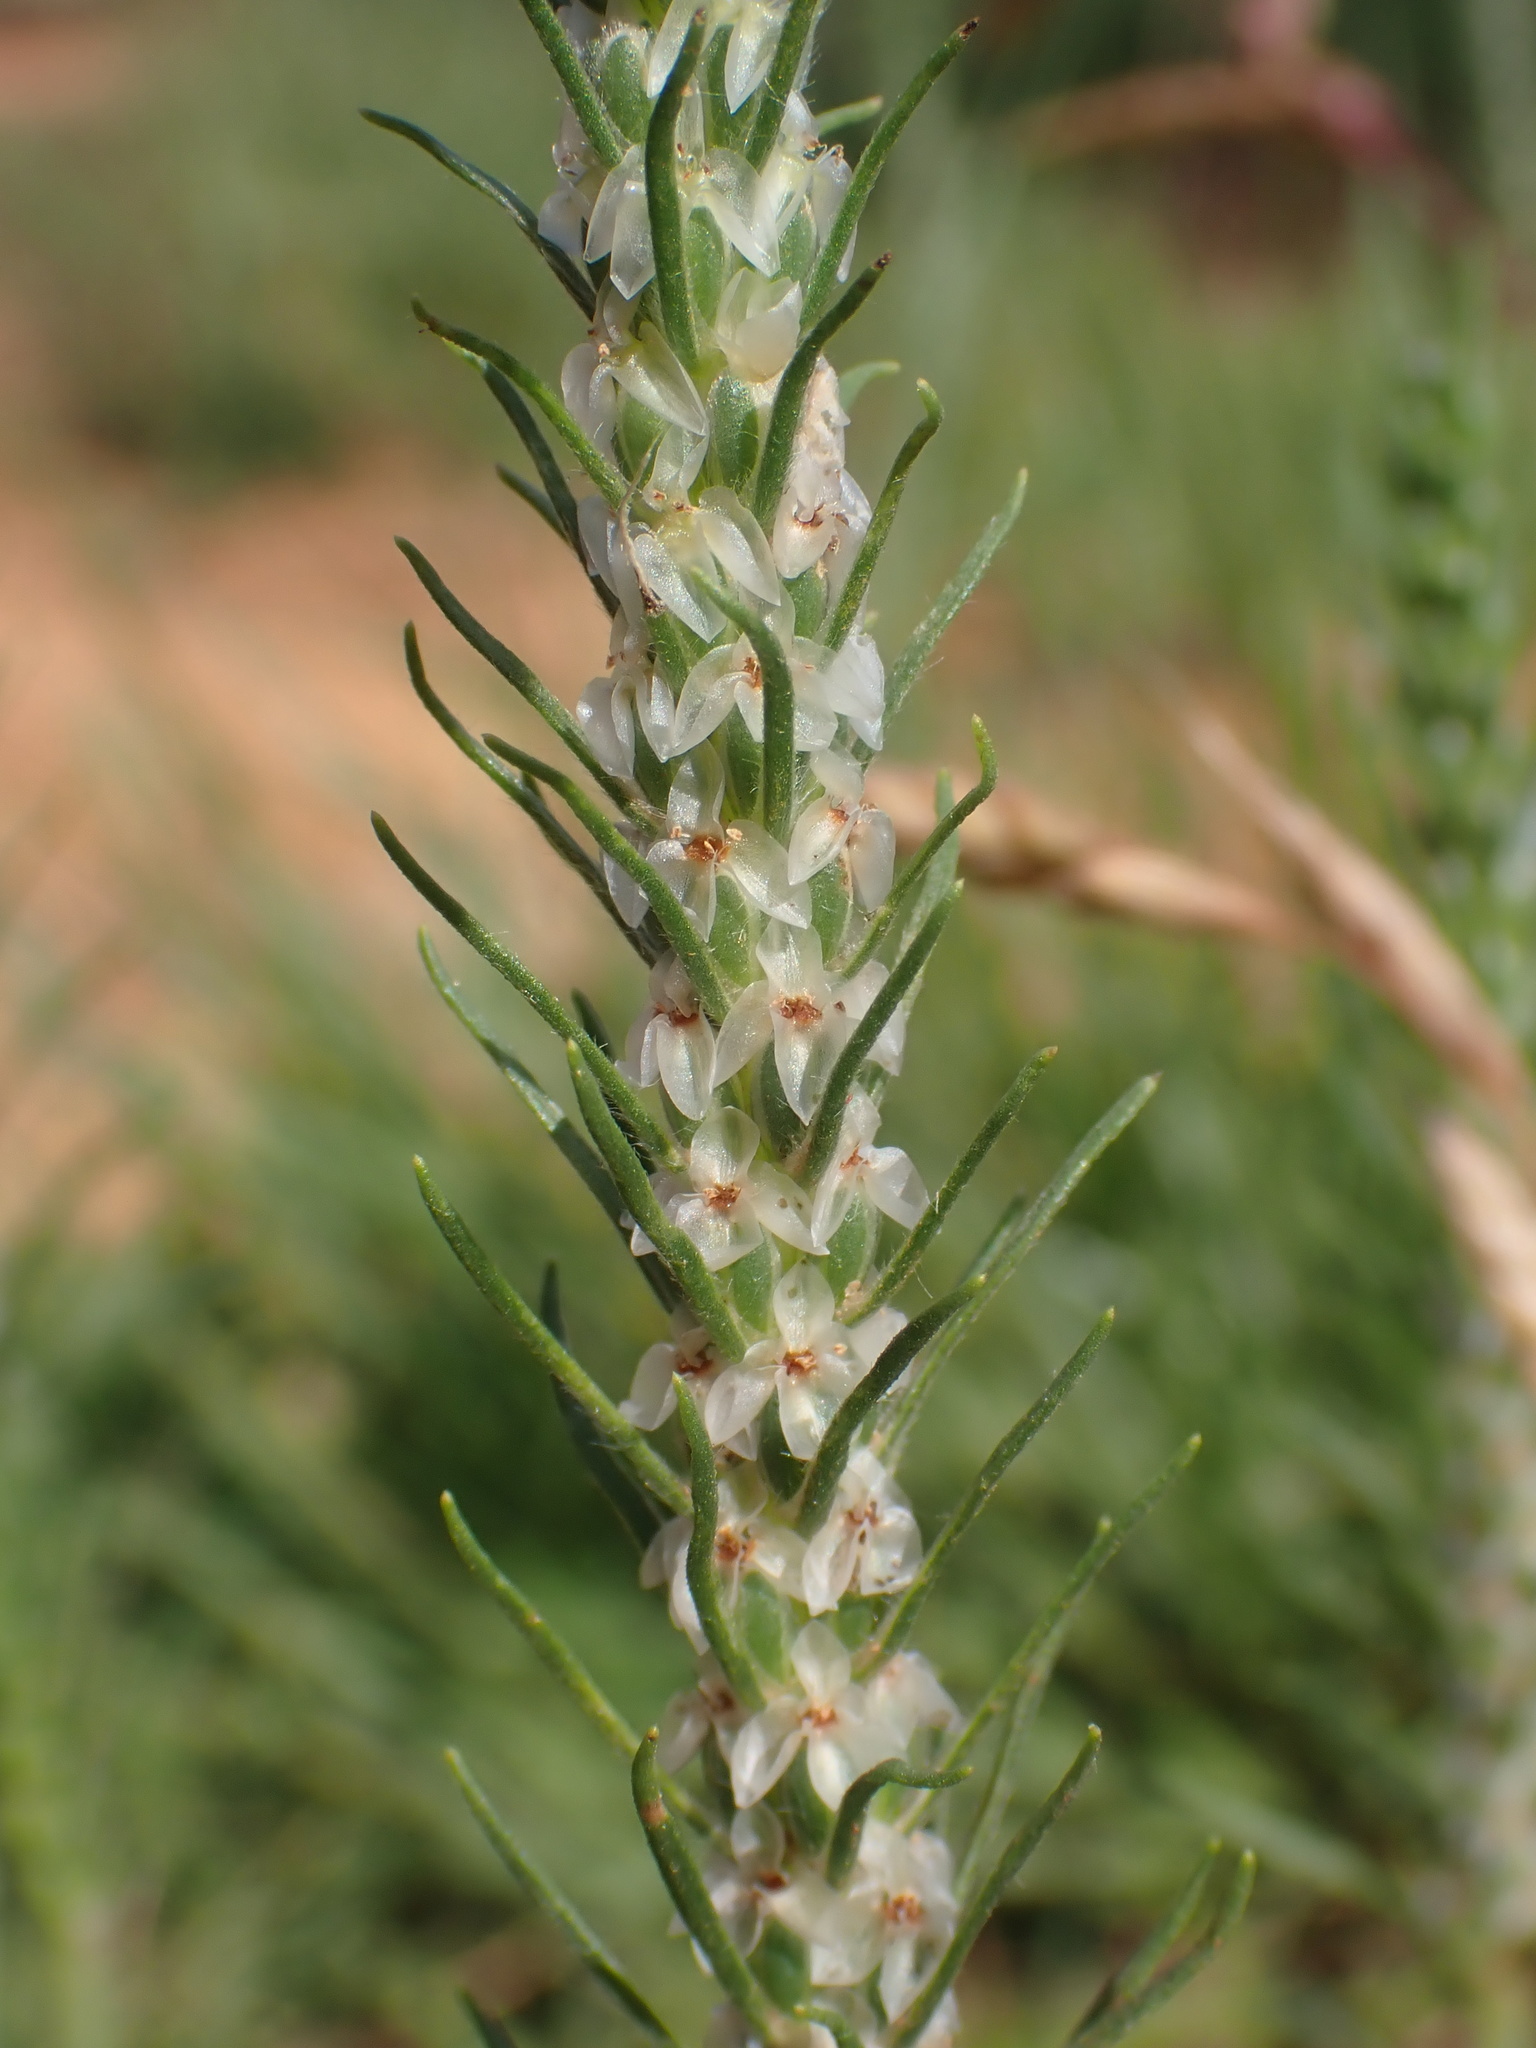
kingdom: Plantae
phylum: Tracheophyta
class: Magnoliopsida
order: Lamiales
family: Plantaginaceae
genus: Plantago
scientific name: Plantago aristata
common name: Bracted plantain
